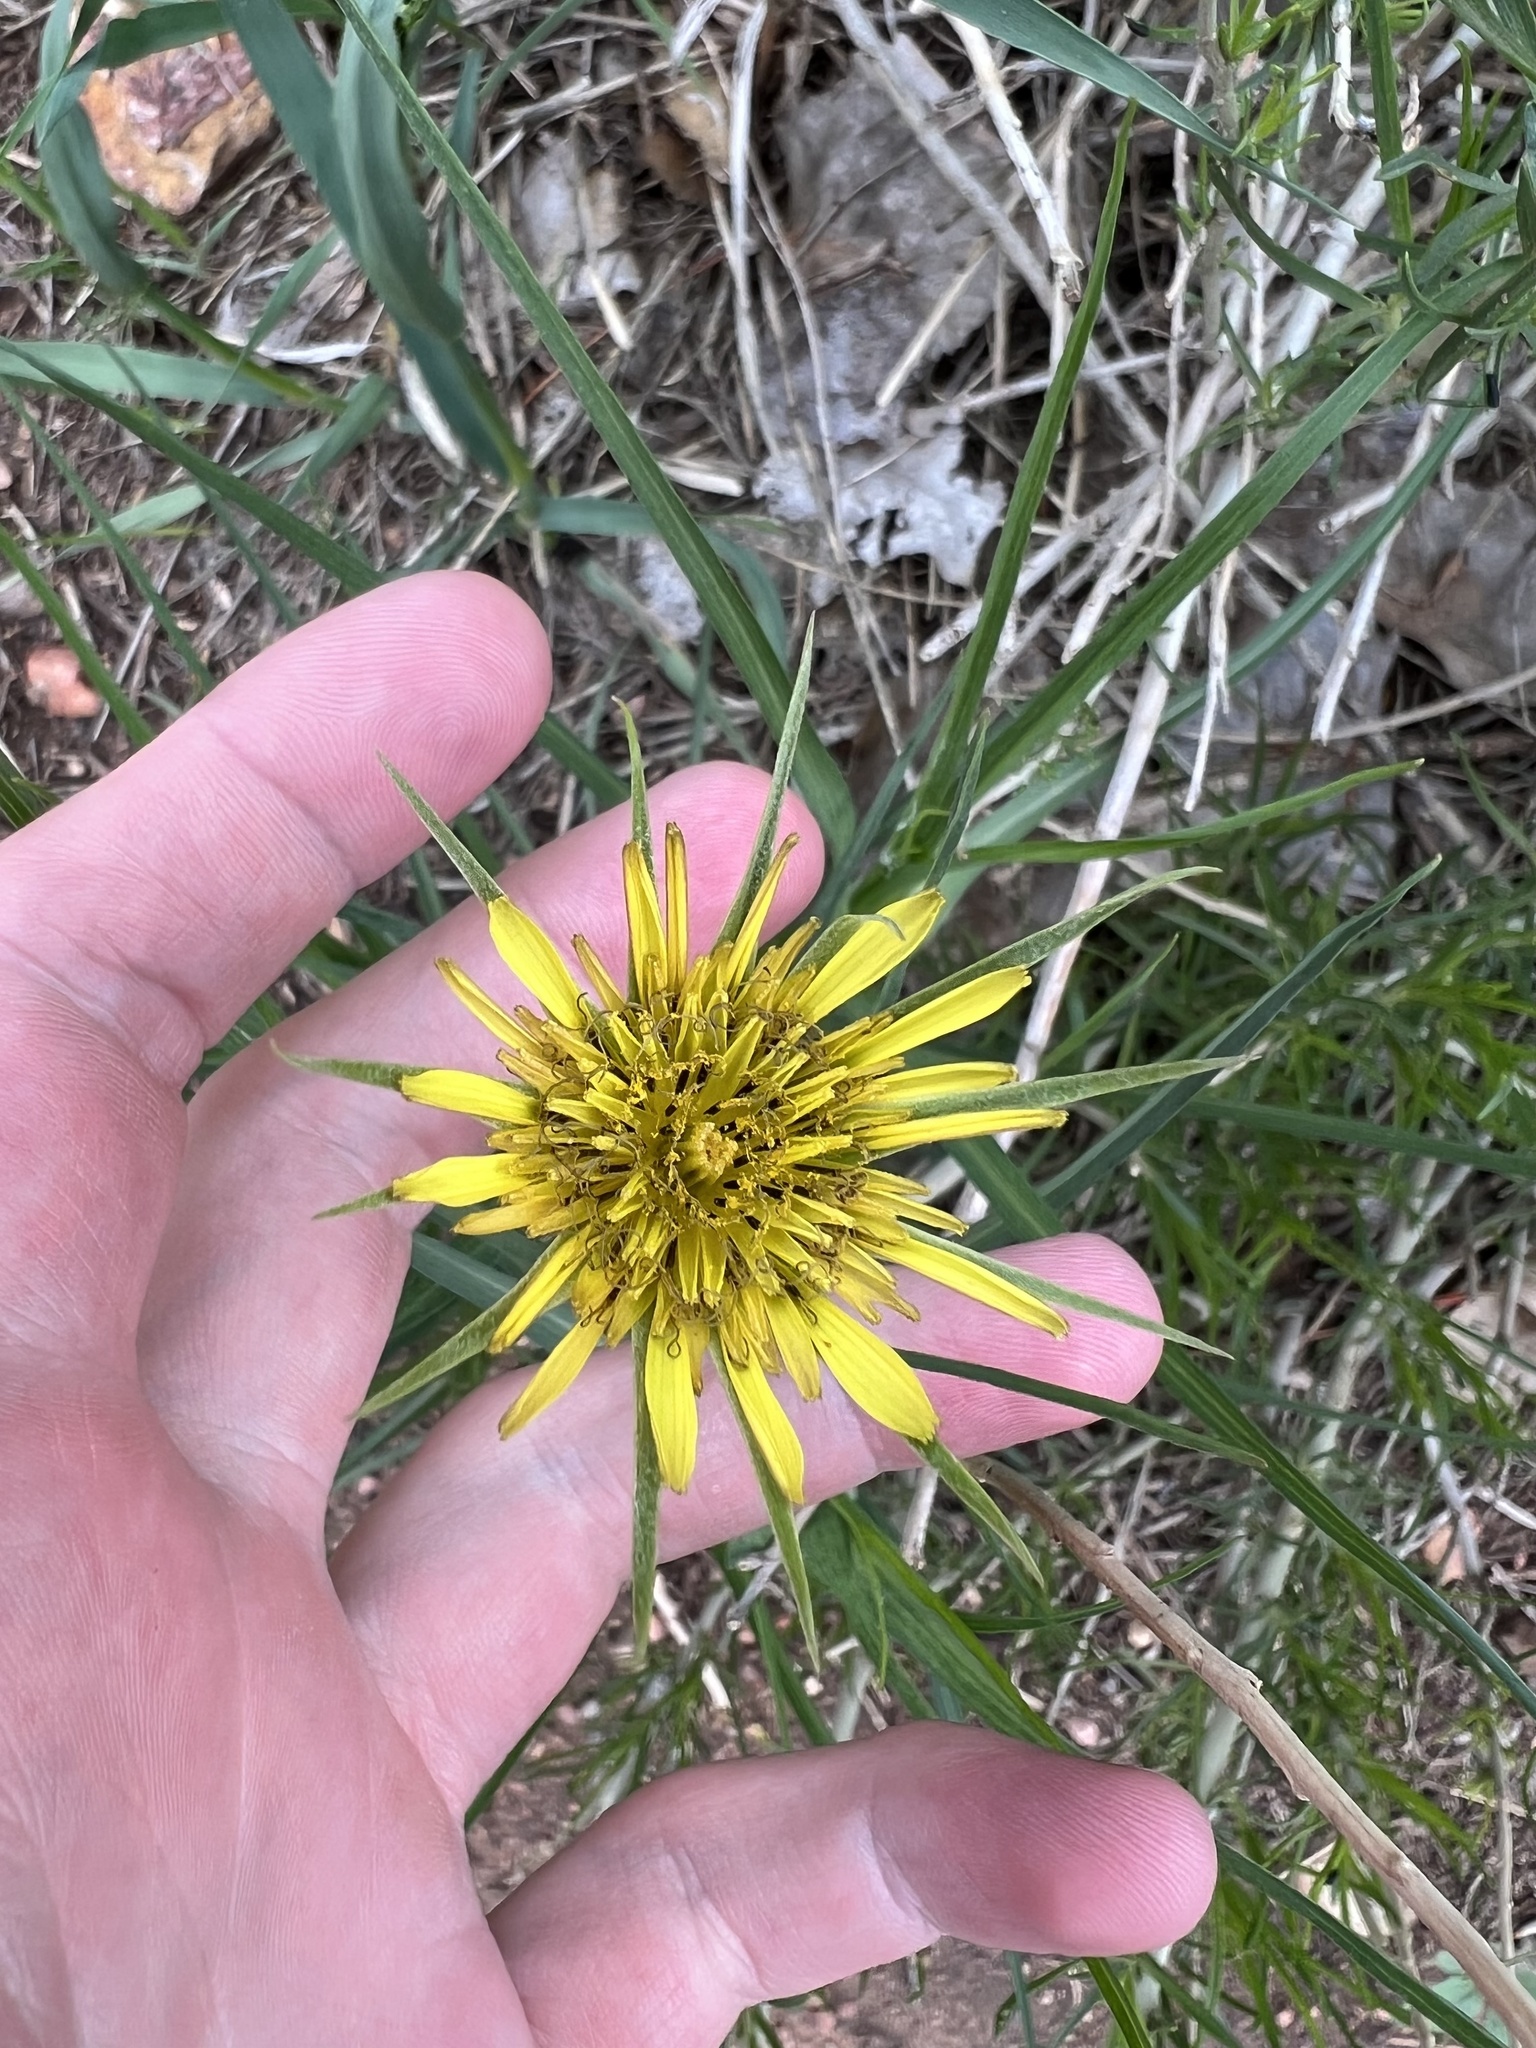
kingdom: Plantae
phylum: Tracheophyta
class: Magnoliopsida
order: Asterales
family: Asteraceae
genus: Tragopogon
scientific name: Tragopogon dubius
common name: Yellow salsify
